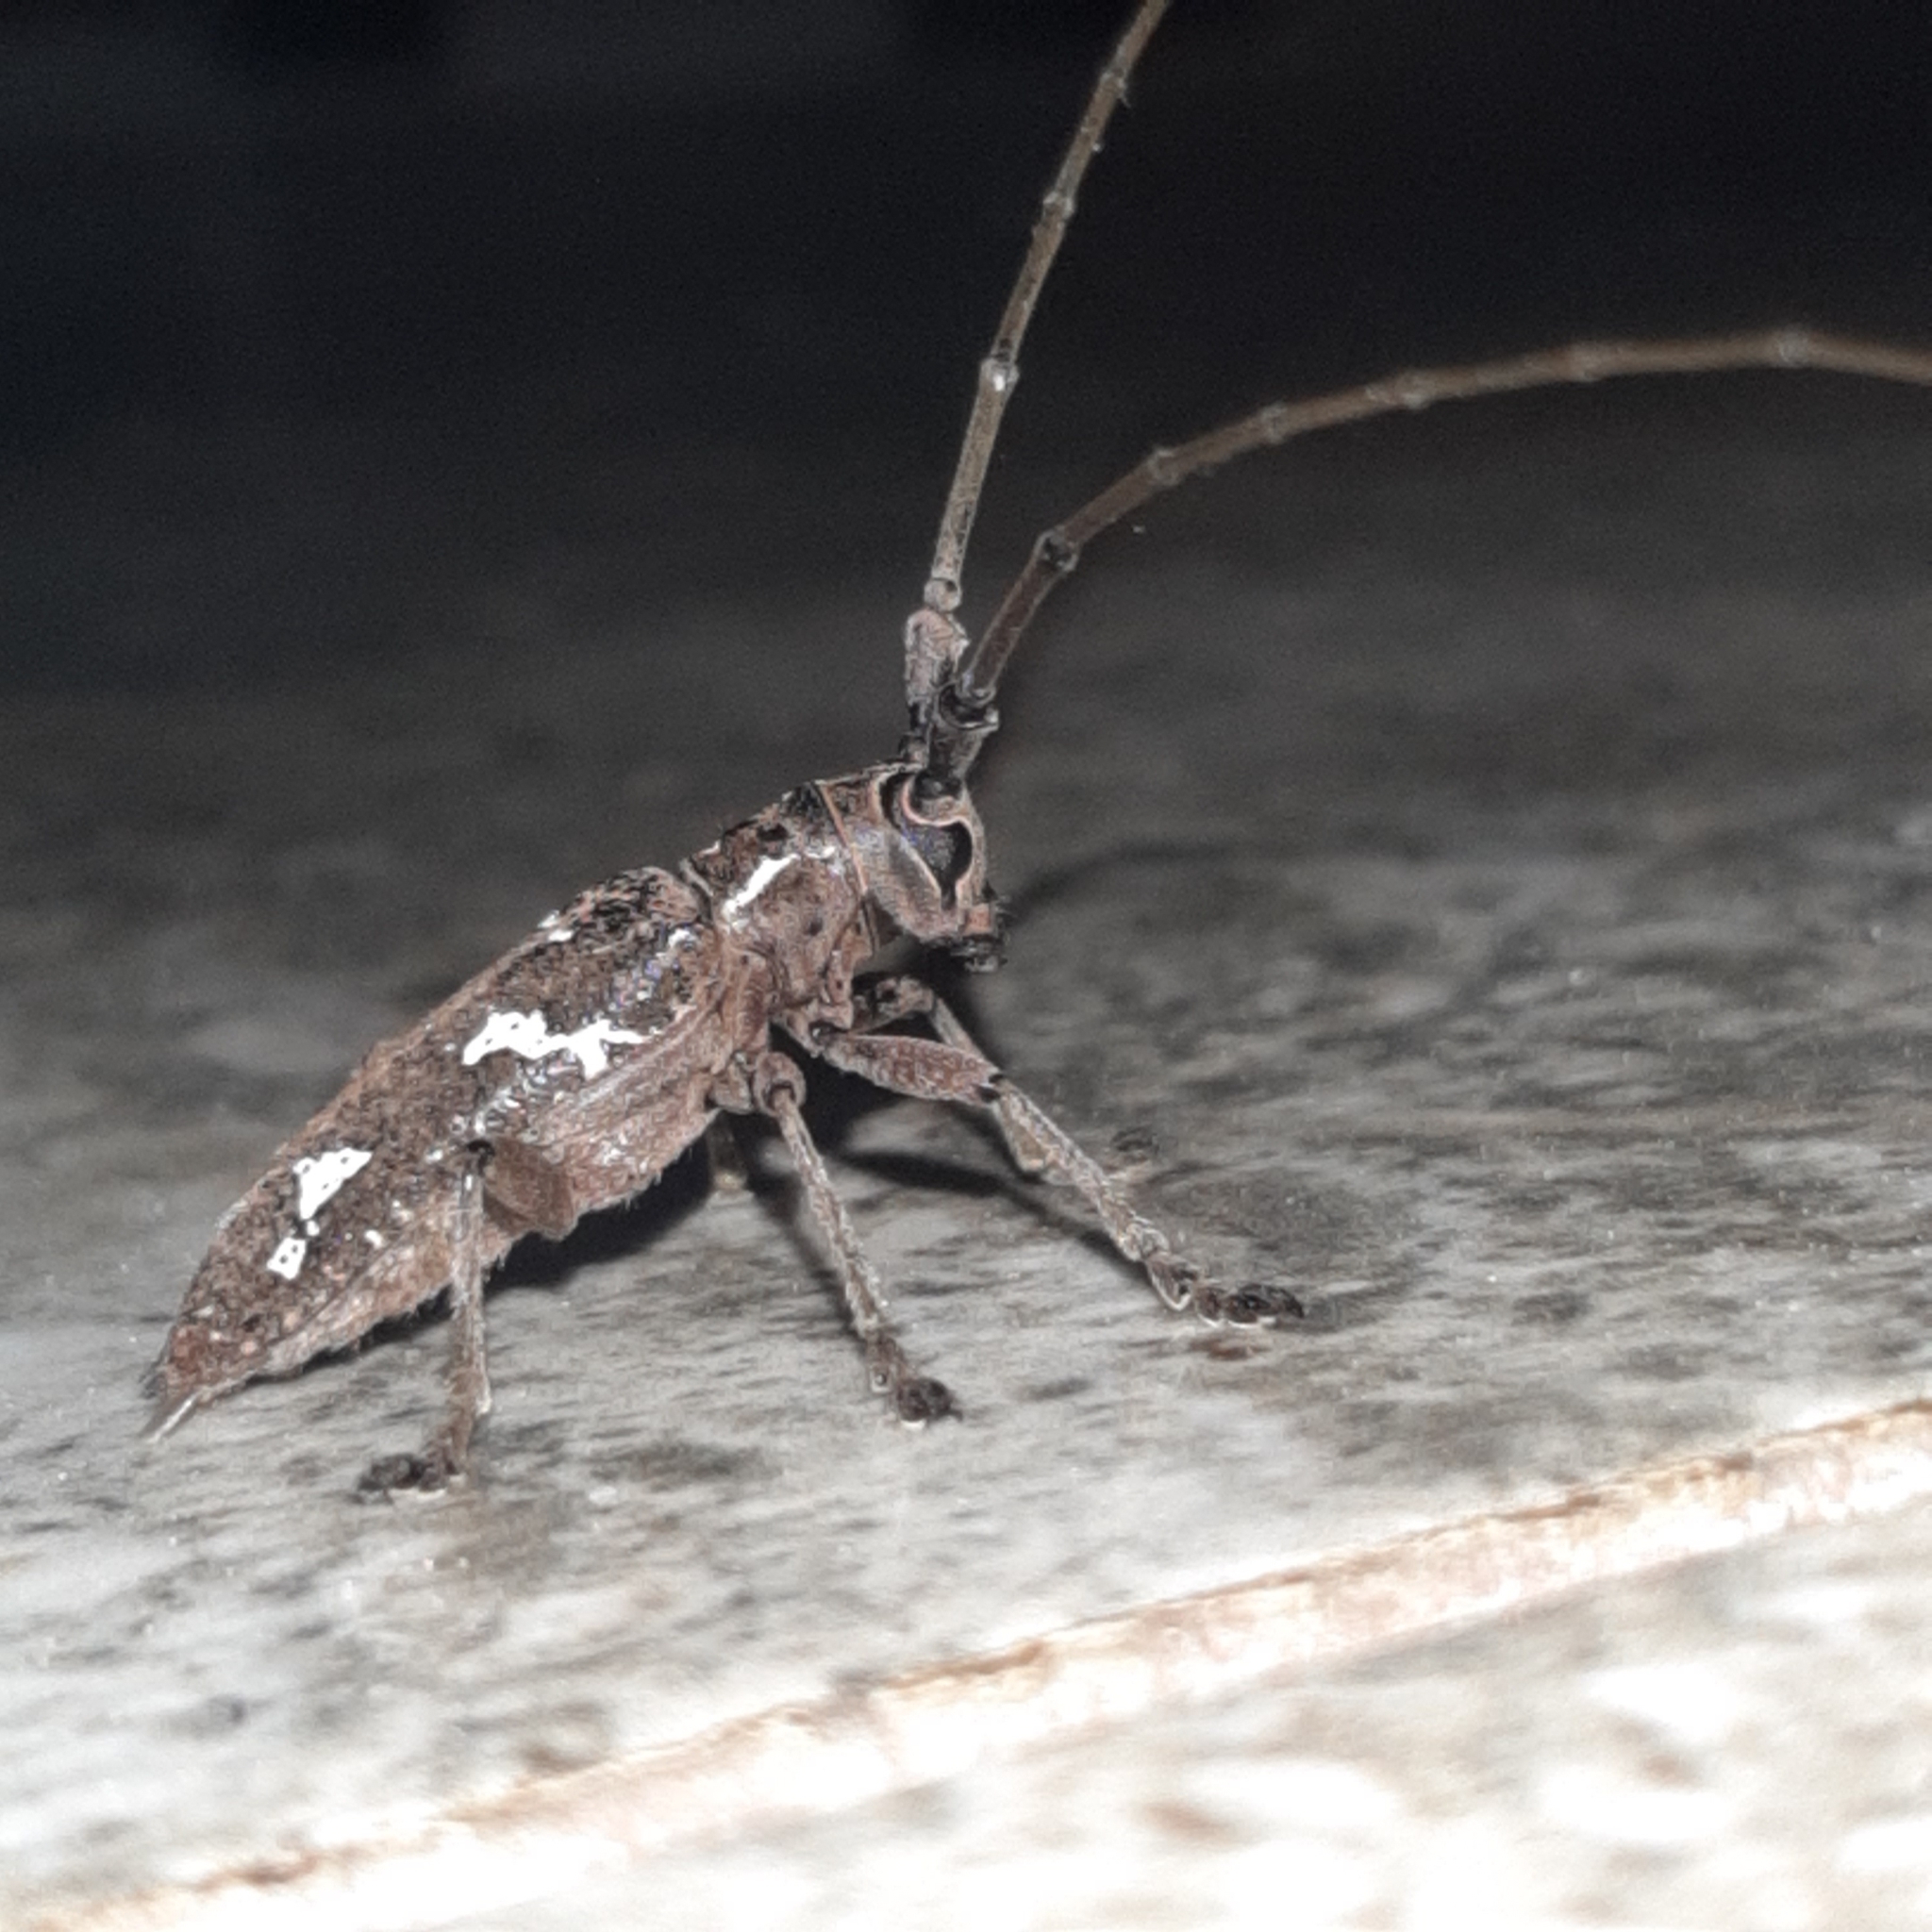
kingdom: Animalia
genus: Hammatoderus
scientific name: Hammatoderus thoracicus
